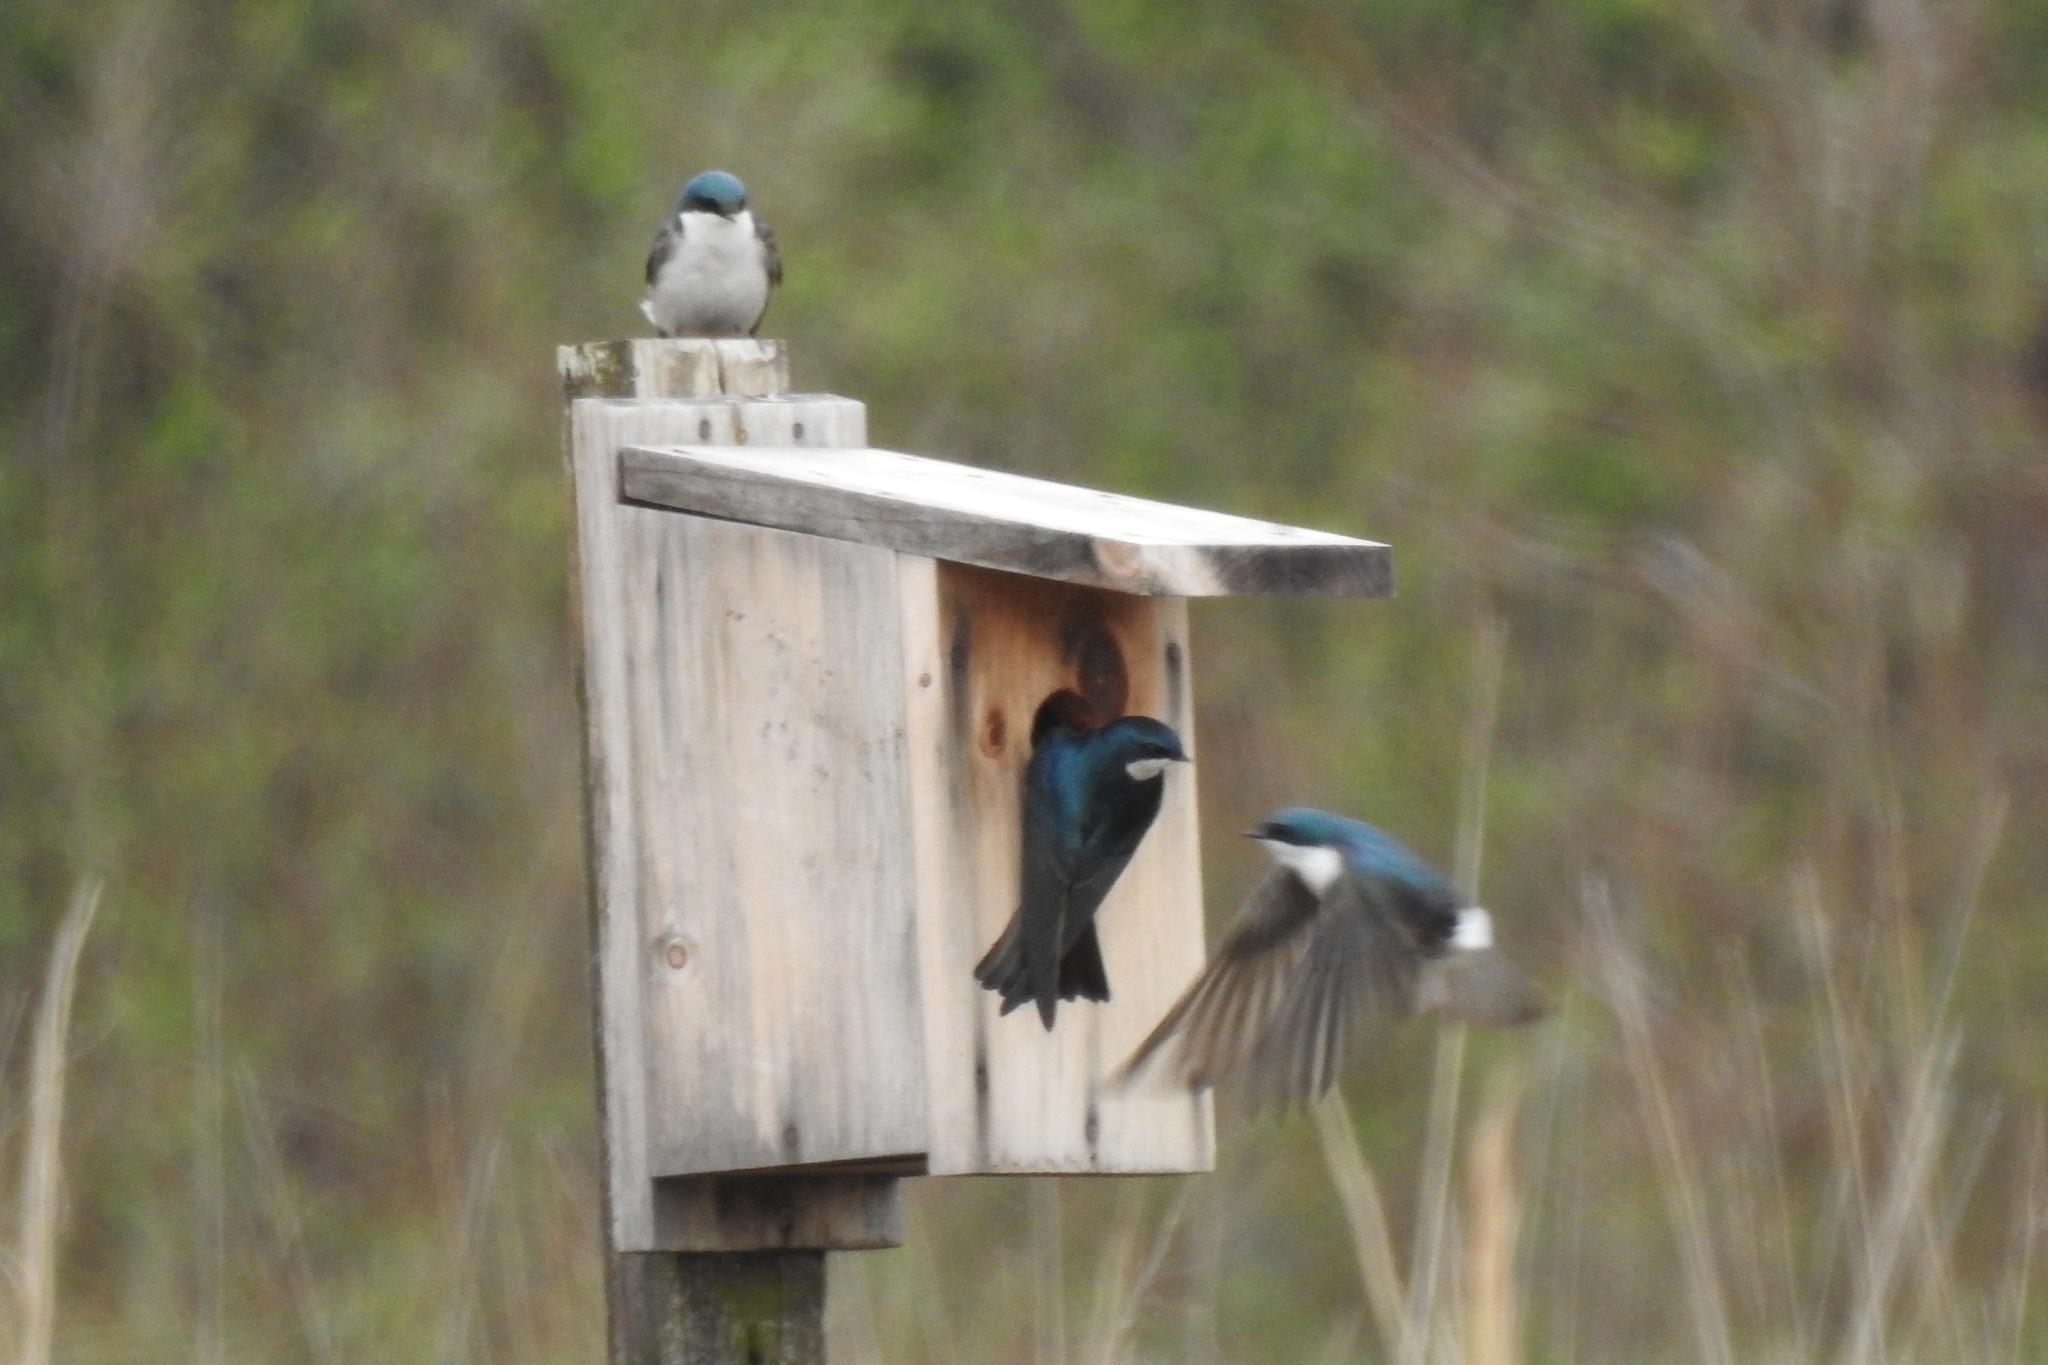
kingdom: Animalia
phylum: Chordata
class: Aves
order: Passeriformes
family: Hirundinidae
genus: Tachycineta
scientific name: Tachycineta bicolor
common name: Tree swallow
